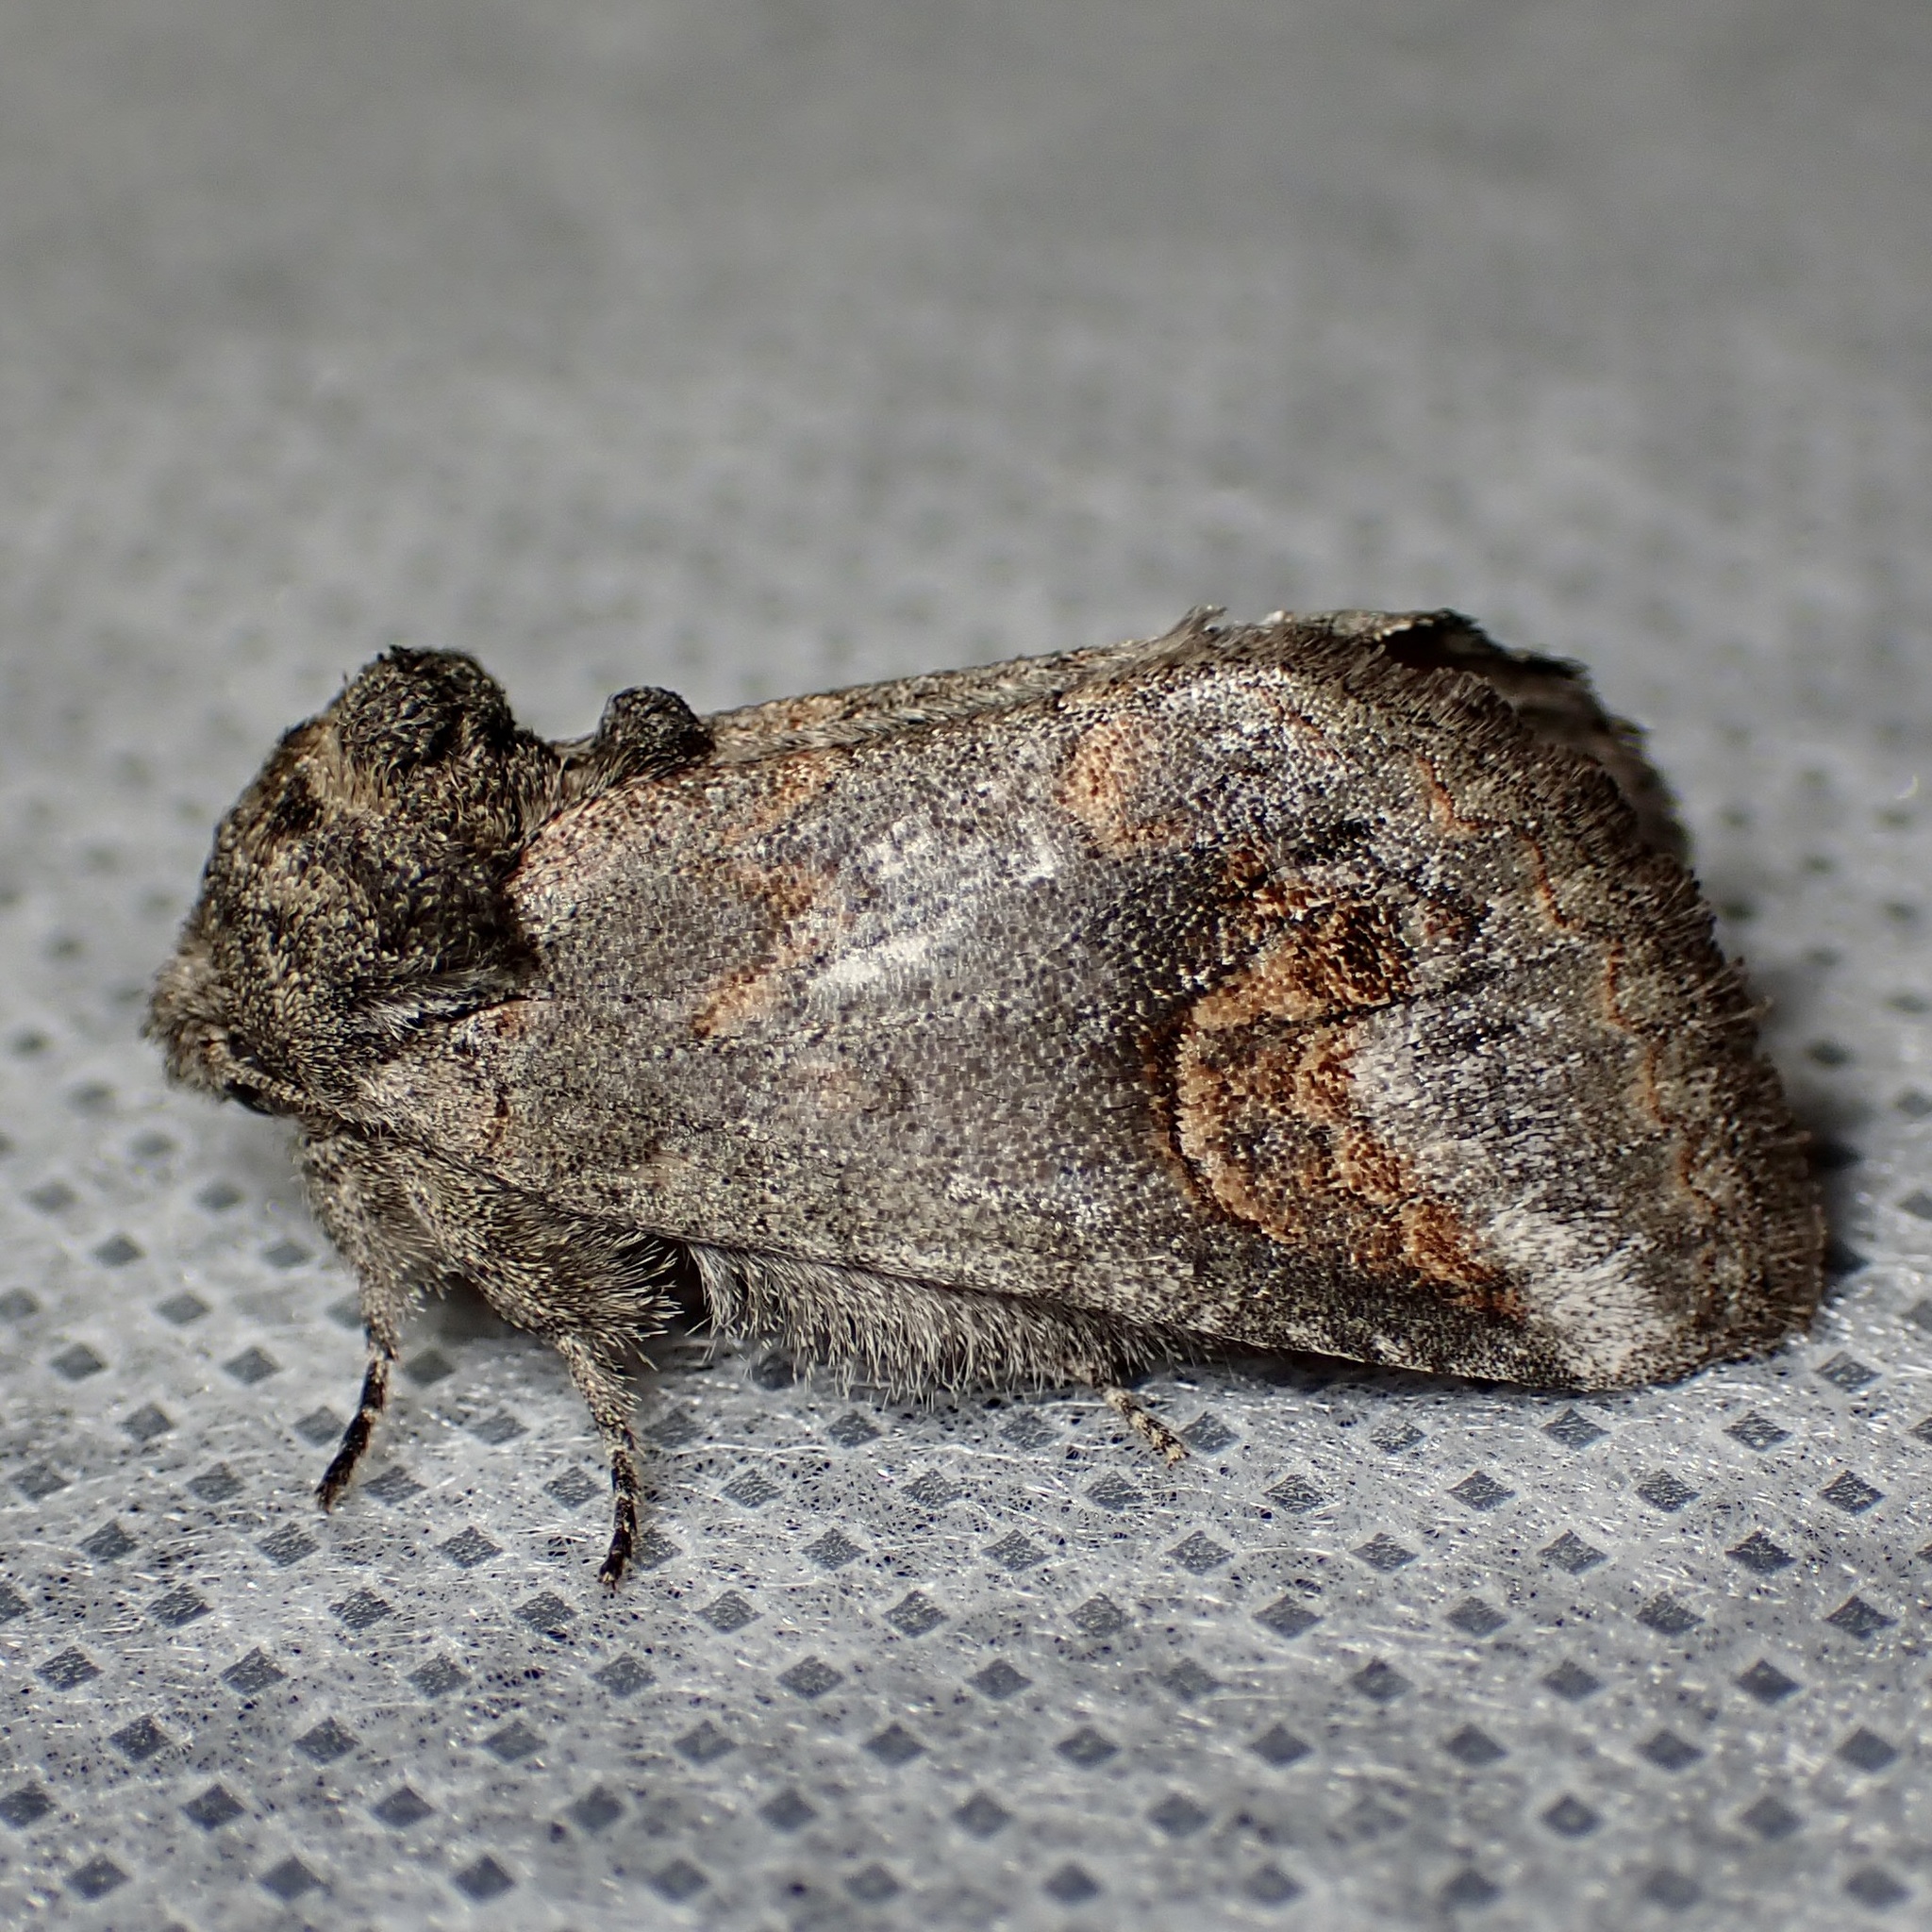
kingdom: Animalia
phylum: Arthropoda
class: Insecta
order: Lepidoptera
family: Notodontidae
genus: Rifargia
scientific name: Rifargia
